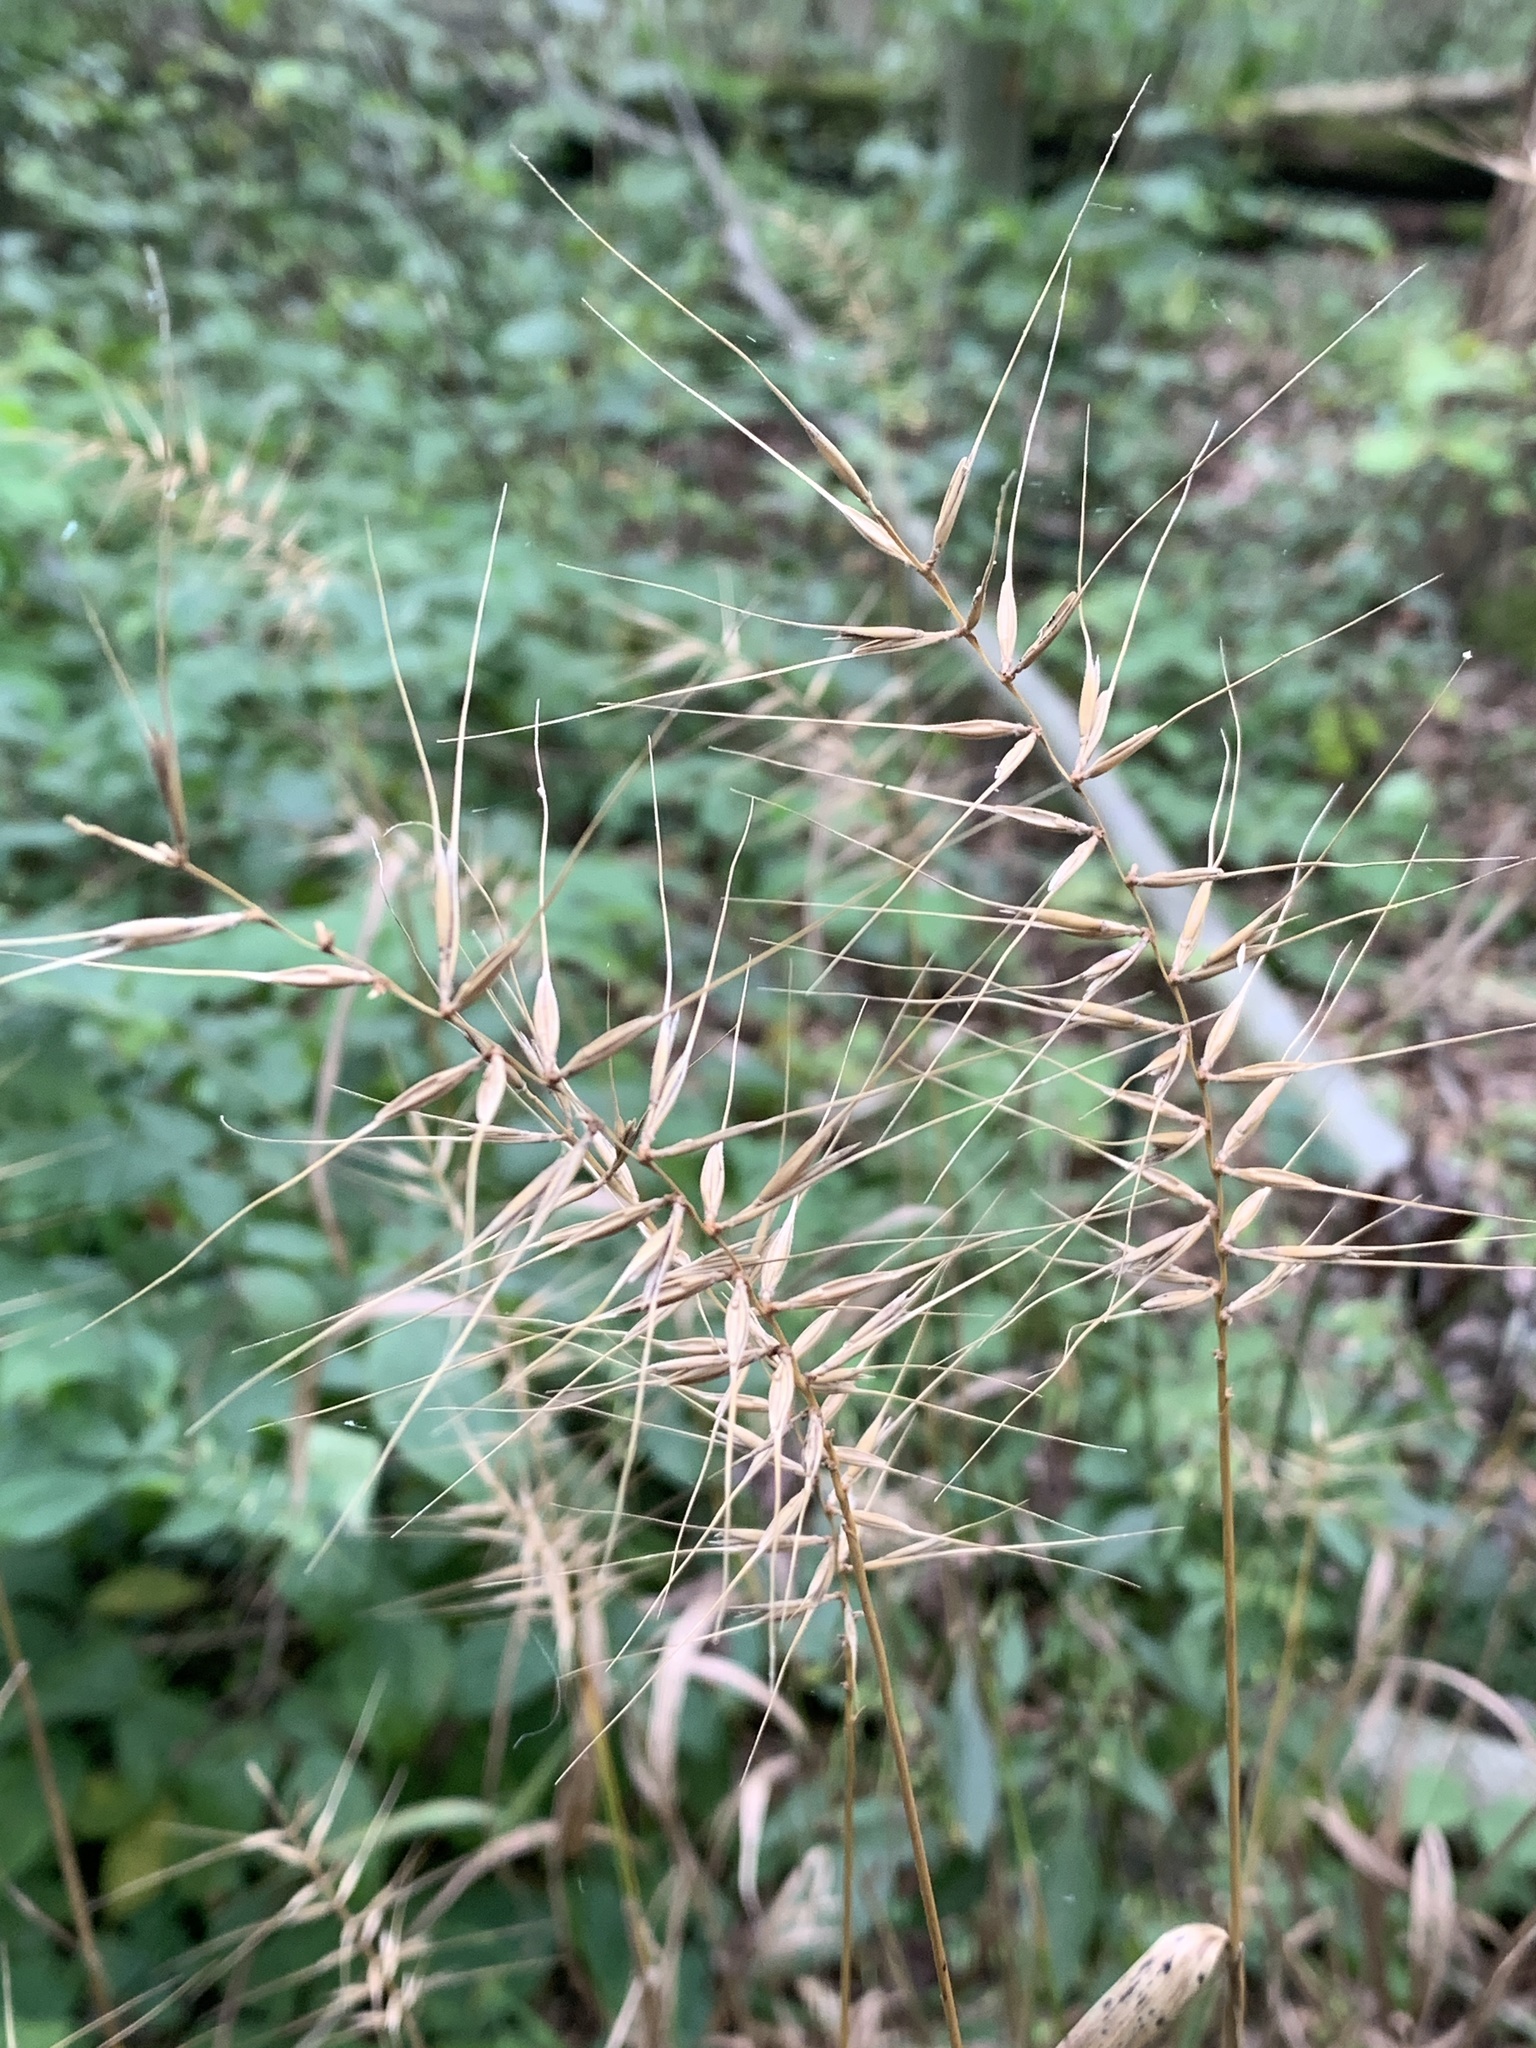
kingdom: Plantae
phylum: Tracheophyta
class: Liliopsida
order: Poales
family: Poaceae
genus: Elymus
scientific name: Elymus hystrix
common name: Bottlebrush grass
